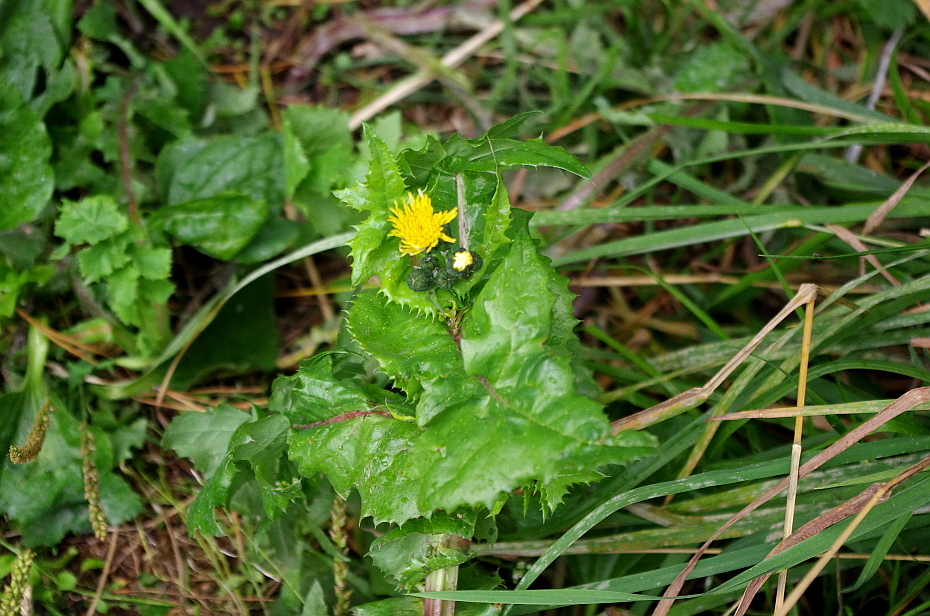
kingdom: Plantae
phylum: Tracheophyta
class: Magnoliopsida
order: Asterales
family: Asteraceae
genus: Sonchus
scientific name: Sonchus oleraceus
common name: Common sowthistle
